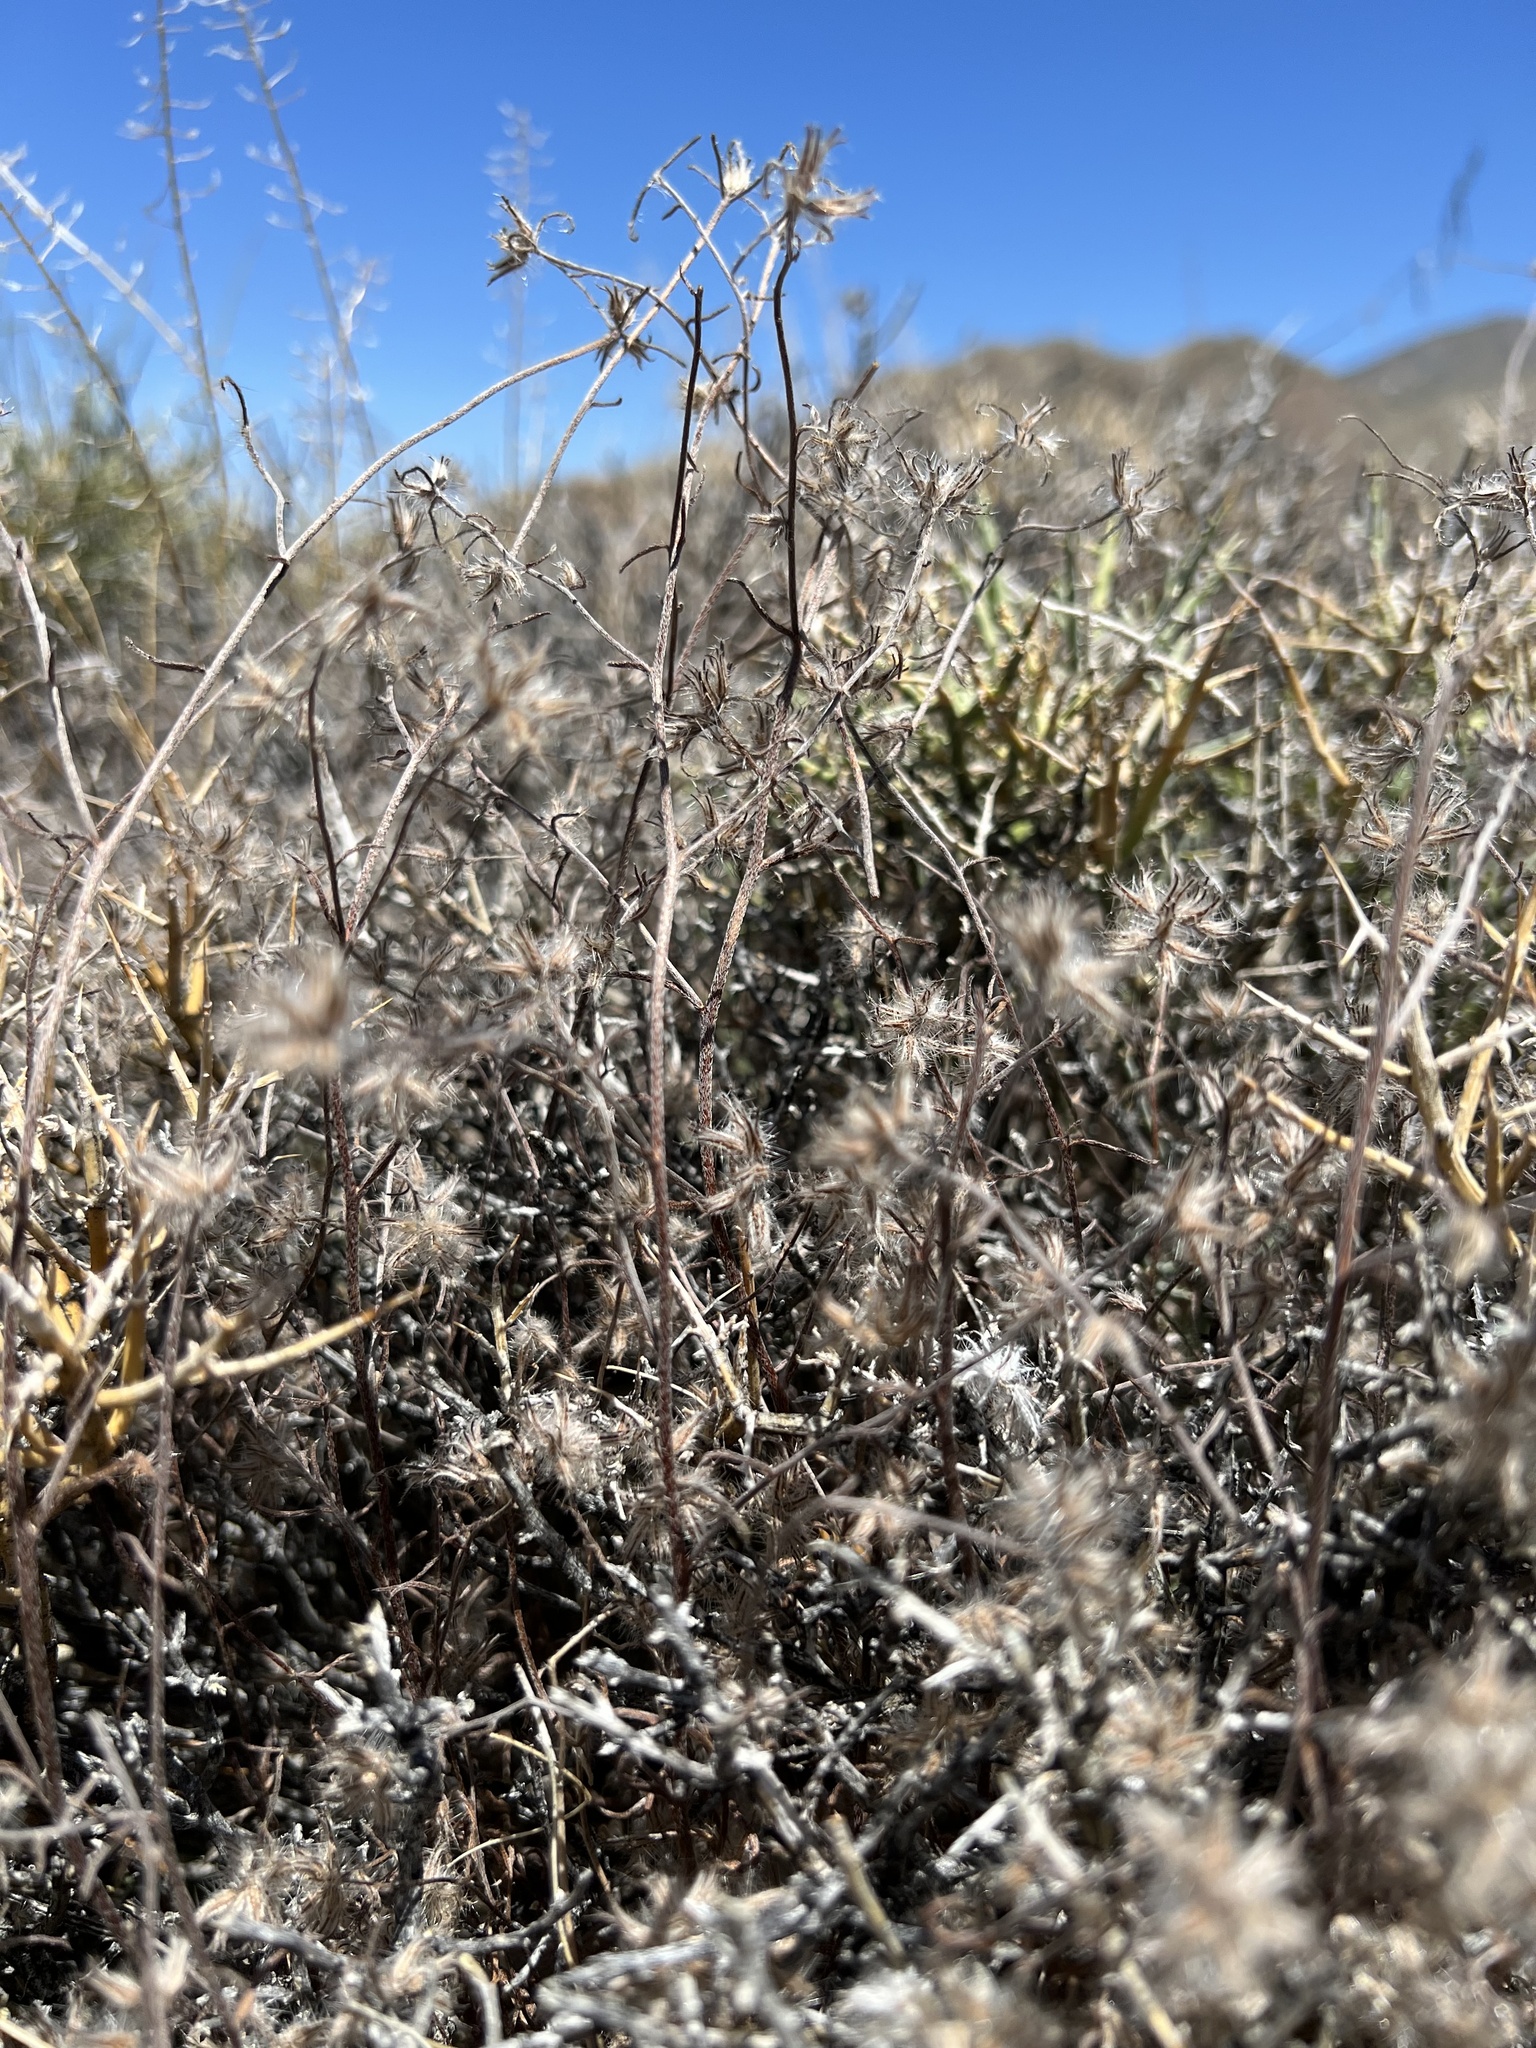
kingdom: Plantae
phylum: Tracheophyta
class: Magnoliopsida
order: Boraginales
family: Boraginaceae
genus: Cryptantha
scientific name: Cryptantha nevadensis
